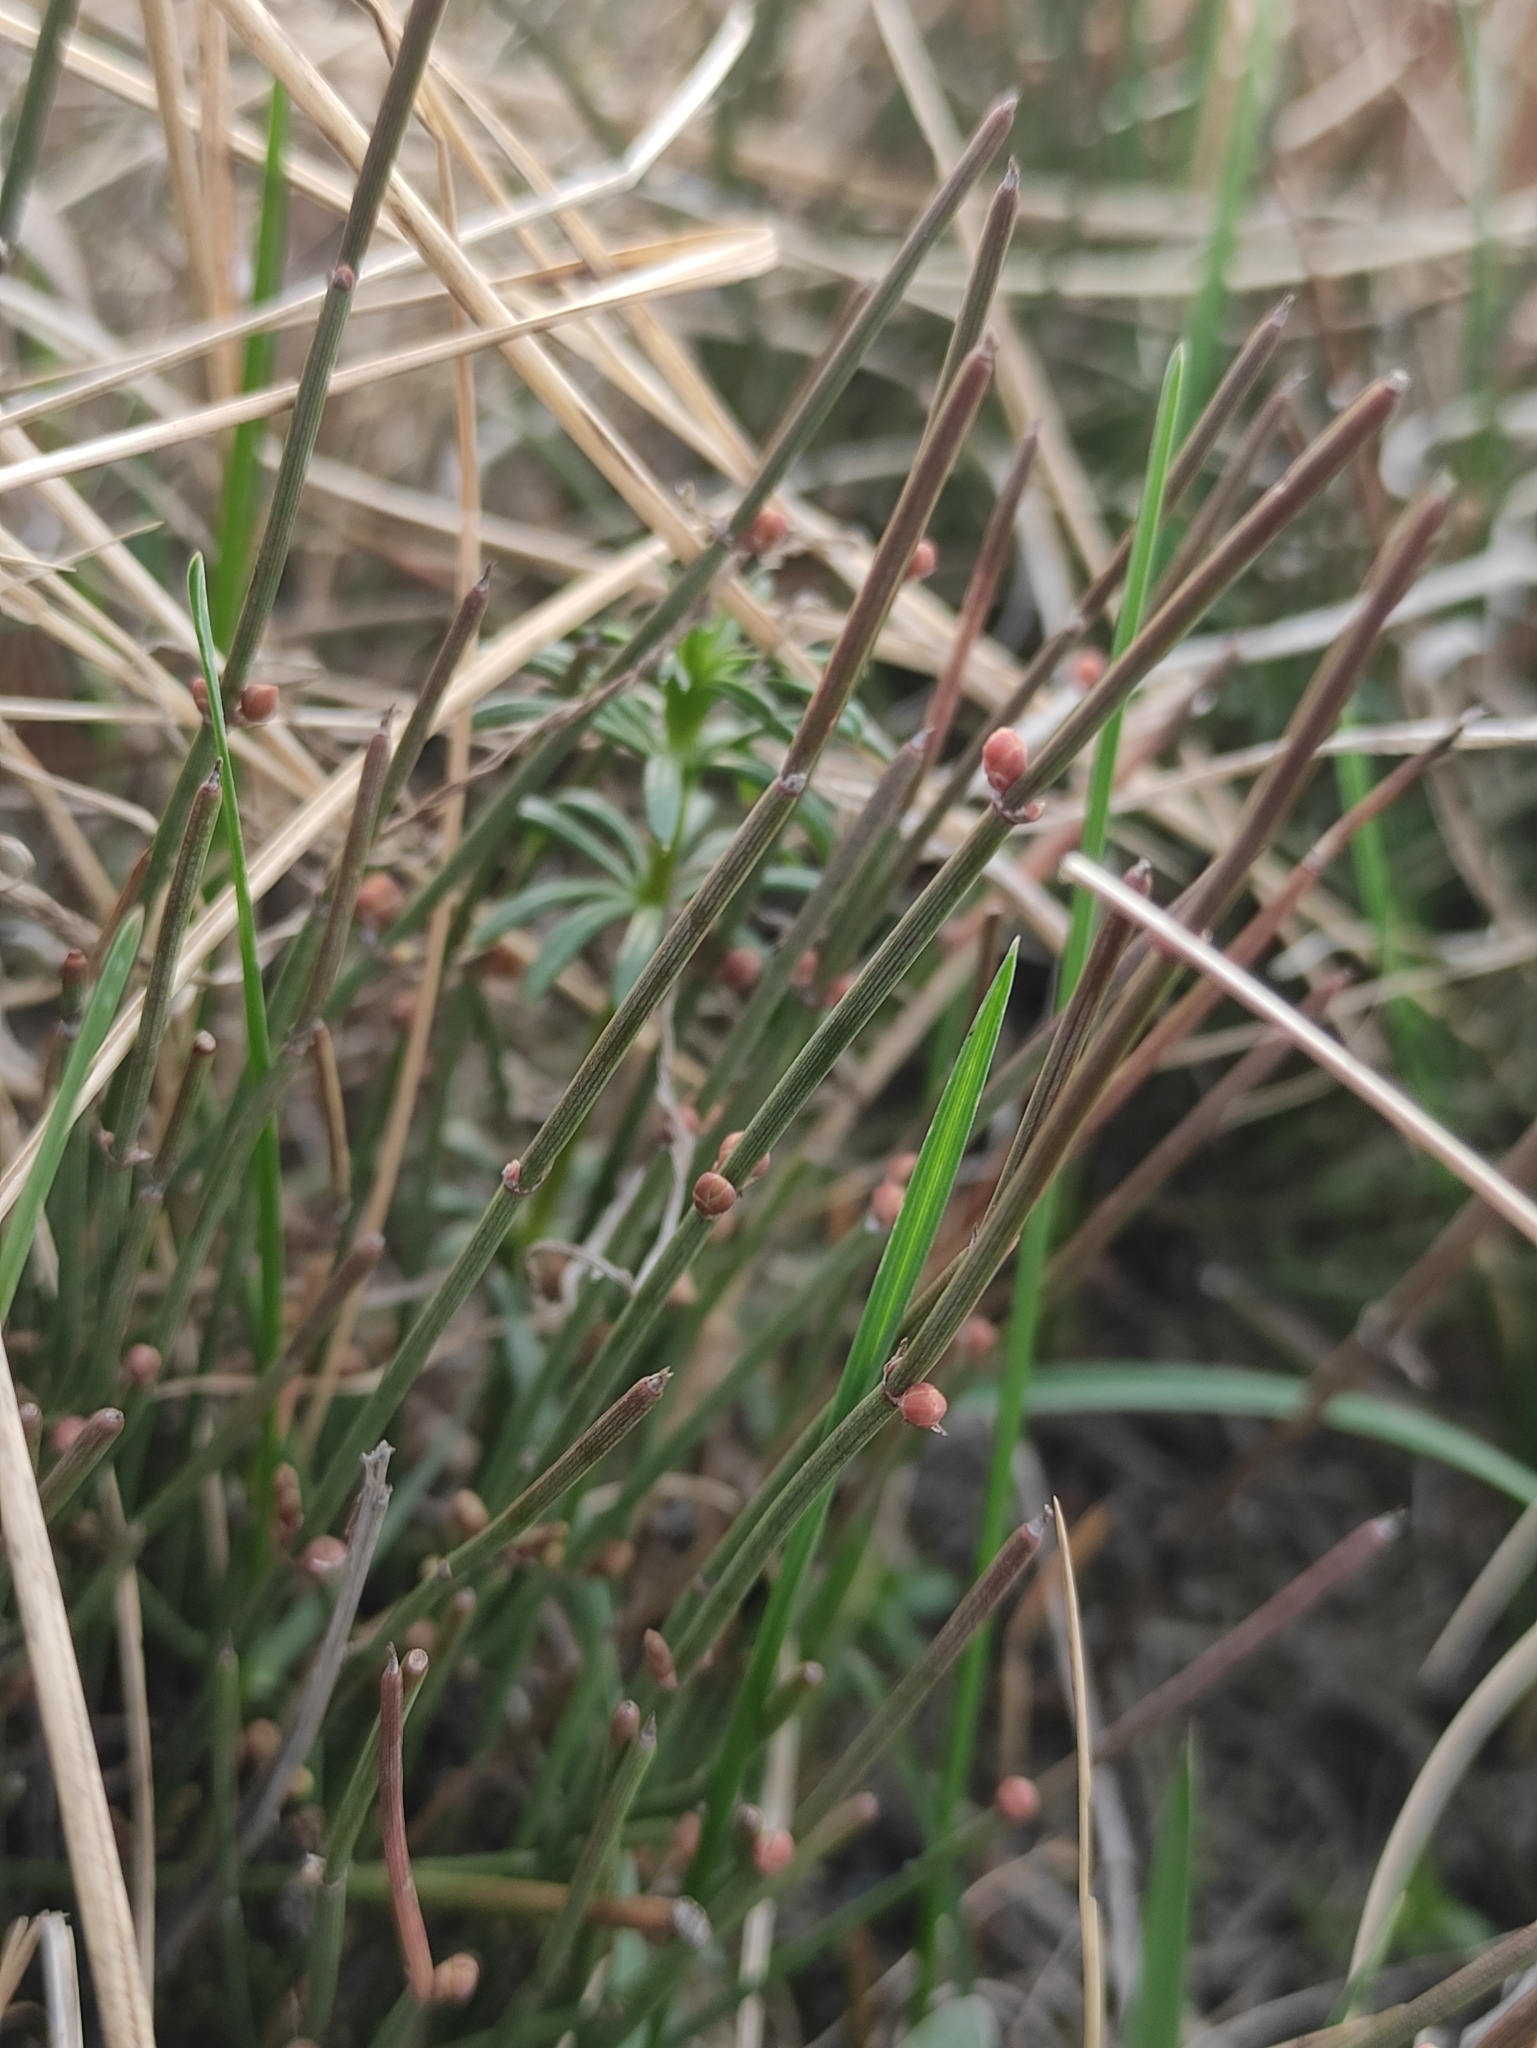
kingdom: Plantae
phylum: Tracheophyta
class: Gnetopsida
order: Ephedrales
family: Ephedraceae
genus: Ephedra
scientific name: Ephedra monosperma
